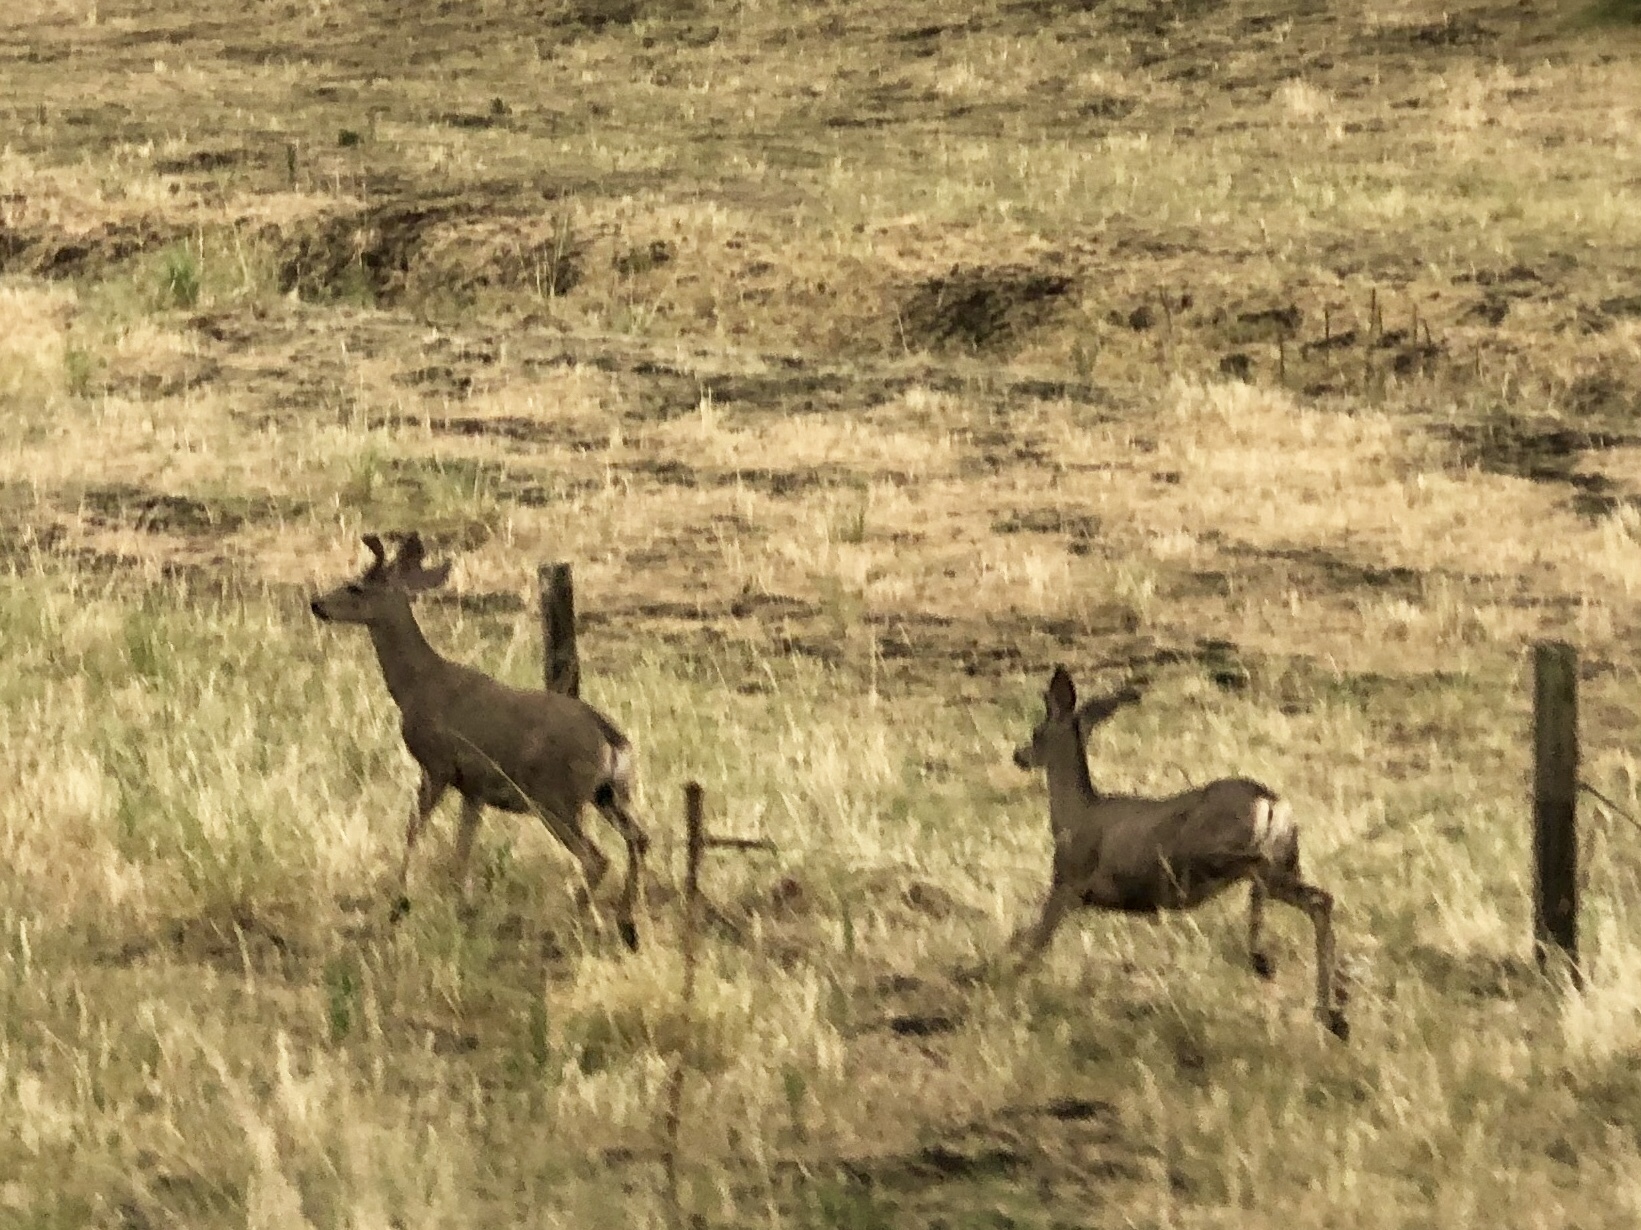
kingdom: Animalia
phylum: Chordata
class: Mammalia
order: Artiodactyla
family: Cervidae
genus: Odocoileus
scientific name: Odocoileus hemionus
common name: Mule deer
